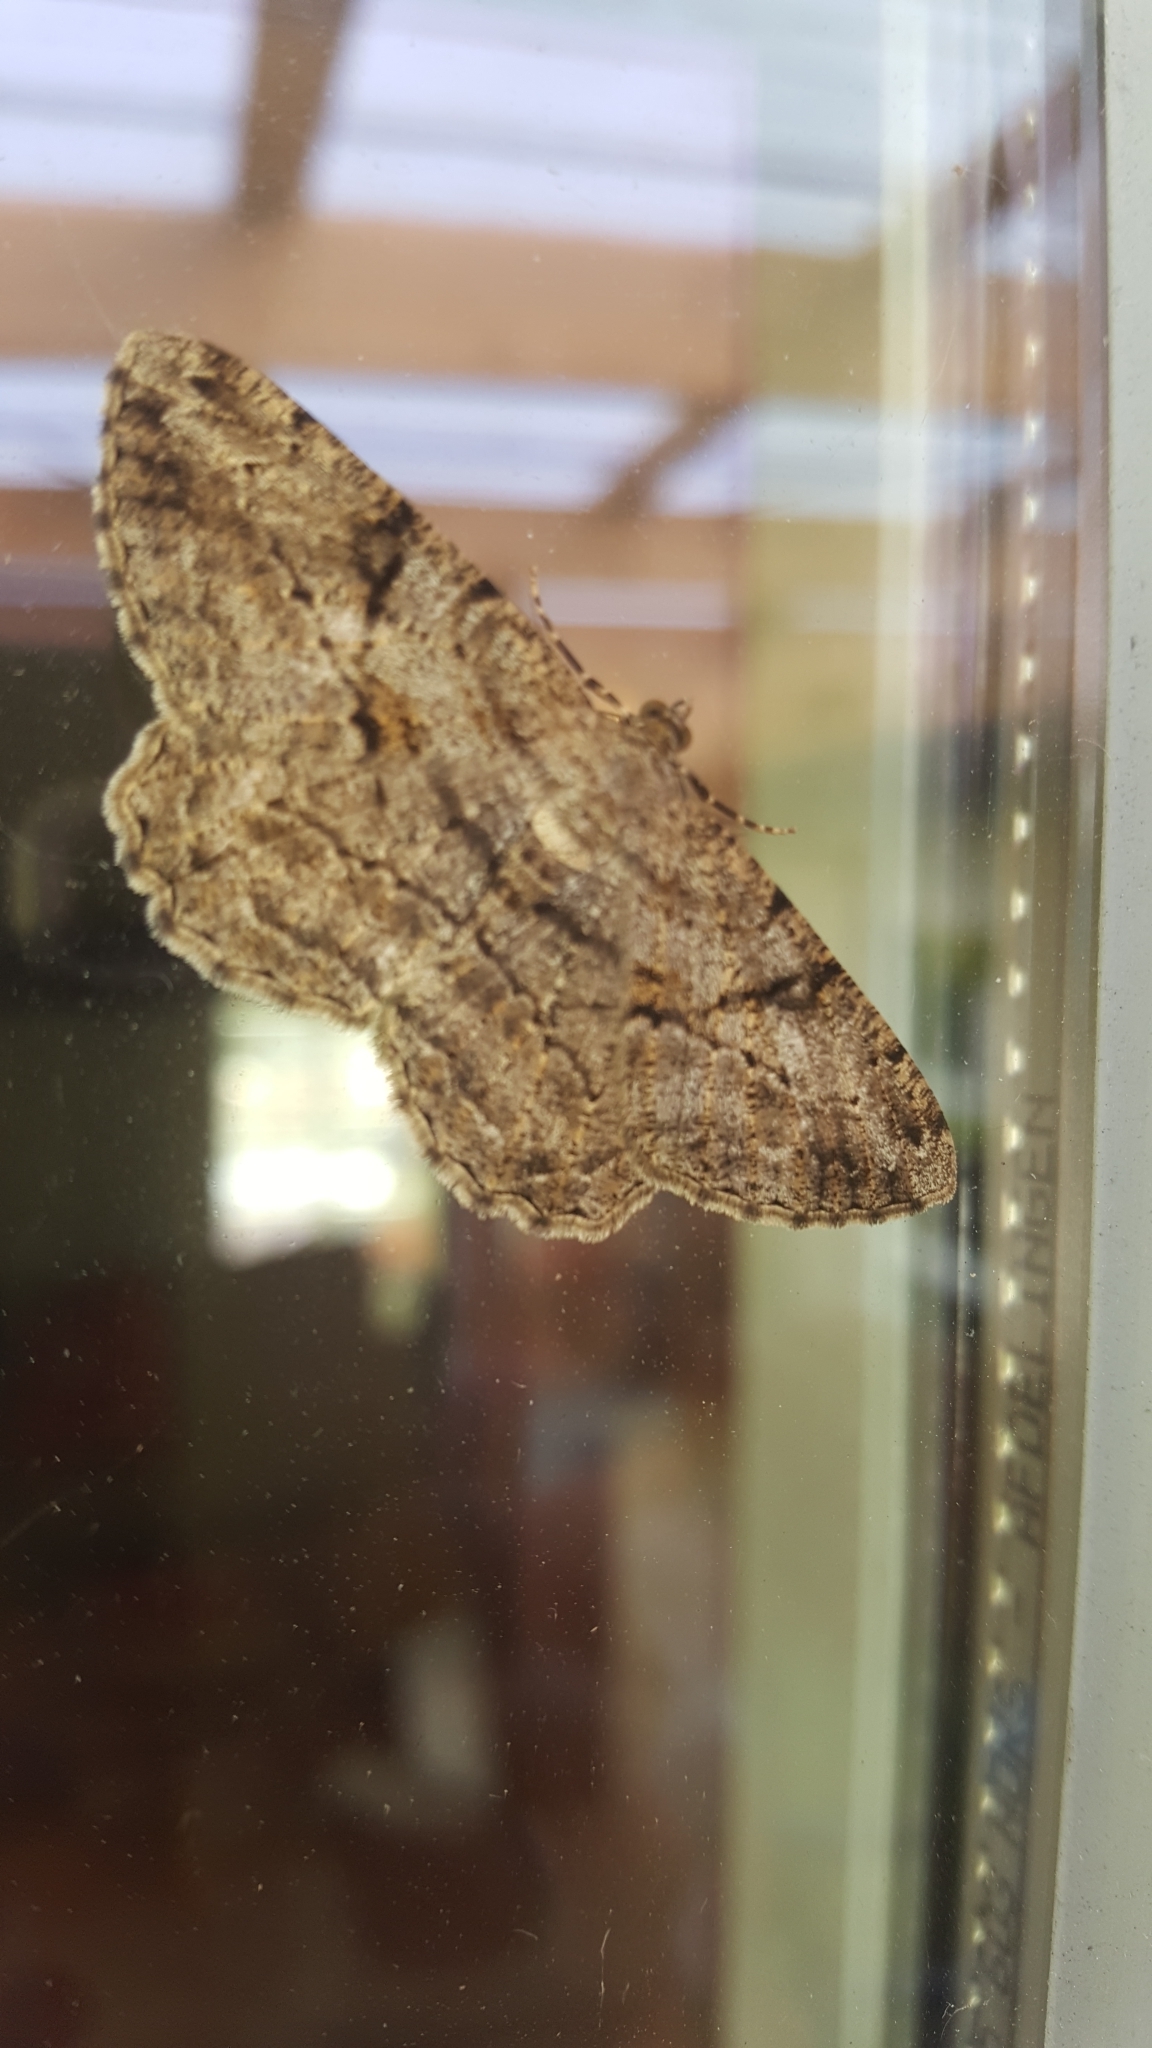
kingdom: Animalia
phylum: Arthropoda
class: Insecta
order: Lepidoptera
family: Geometridae
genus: Peribatodes
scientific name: Peribatodes rhomboidaria
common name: Willow beauty
